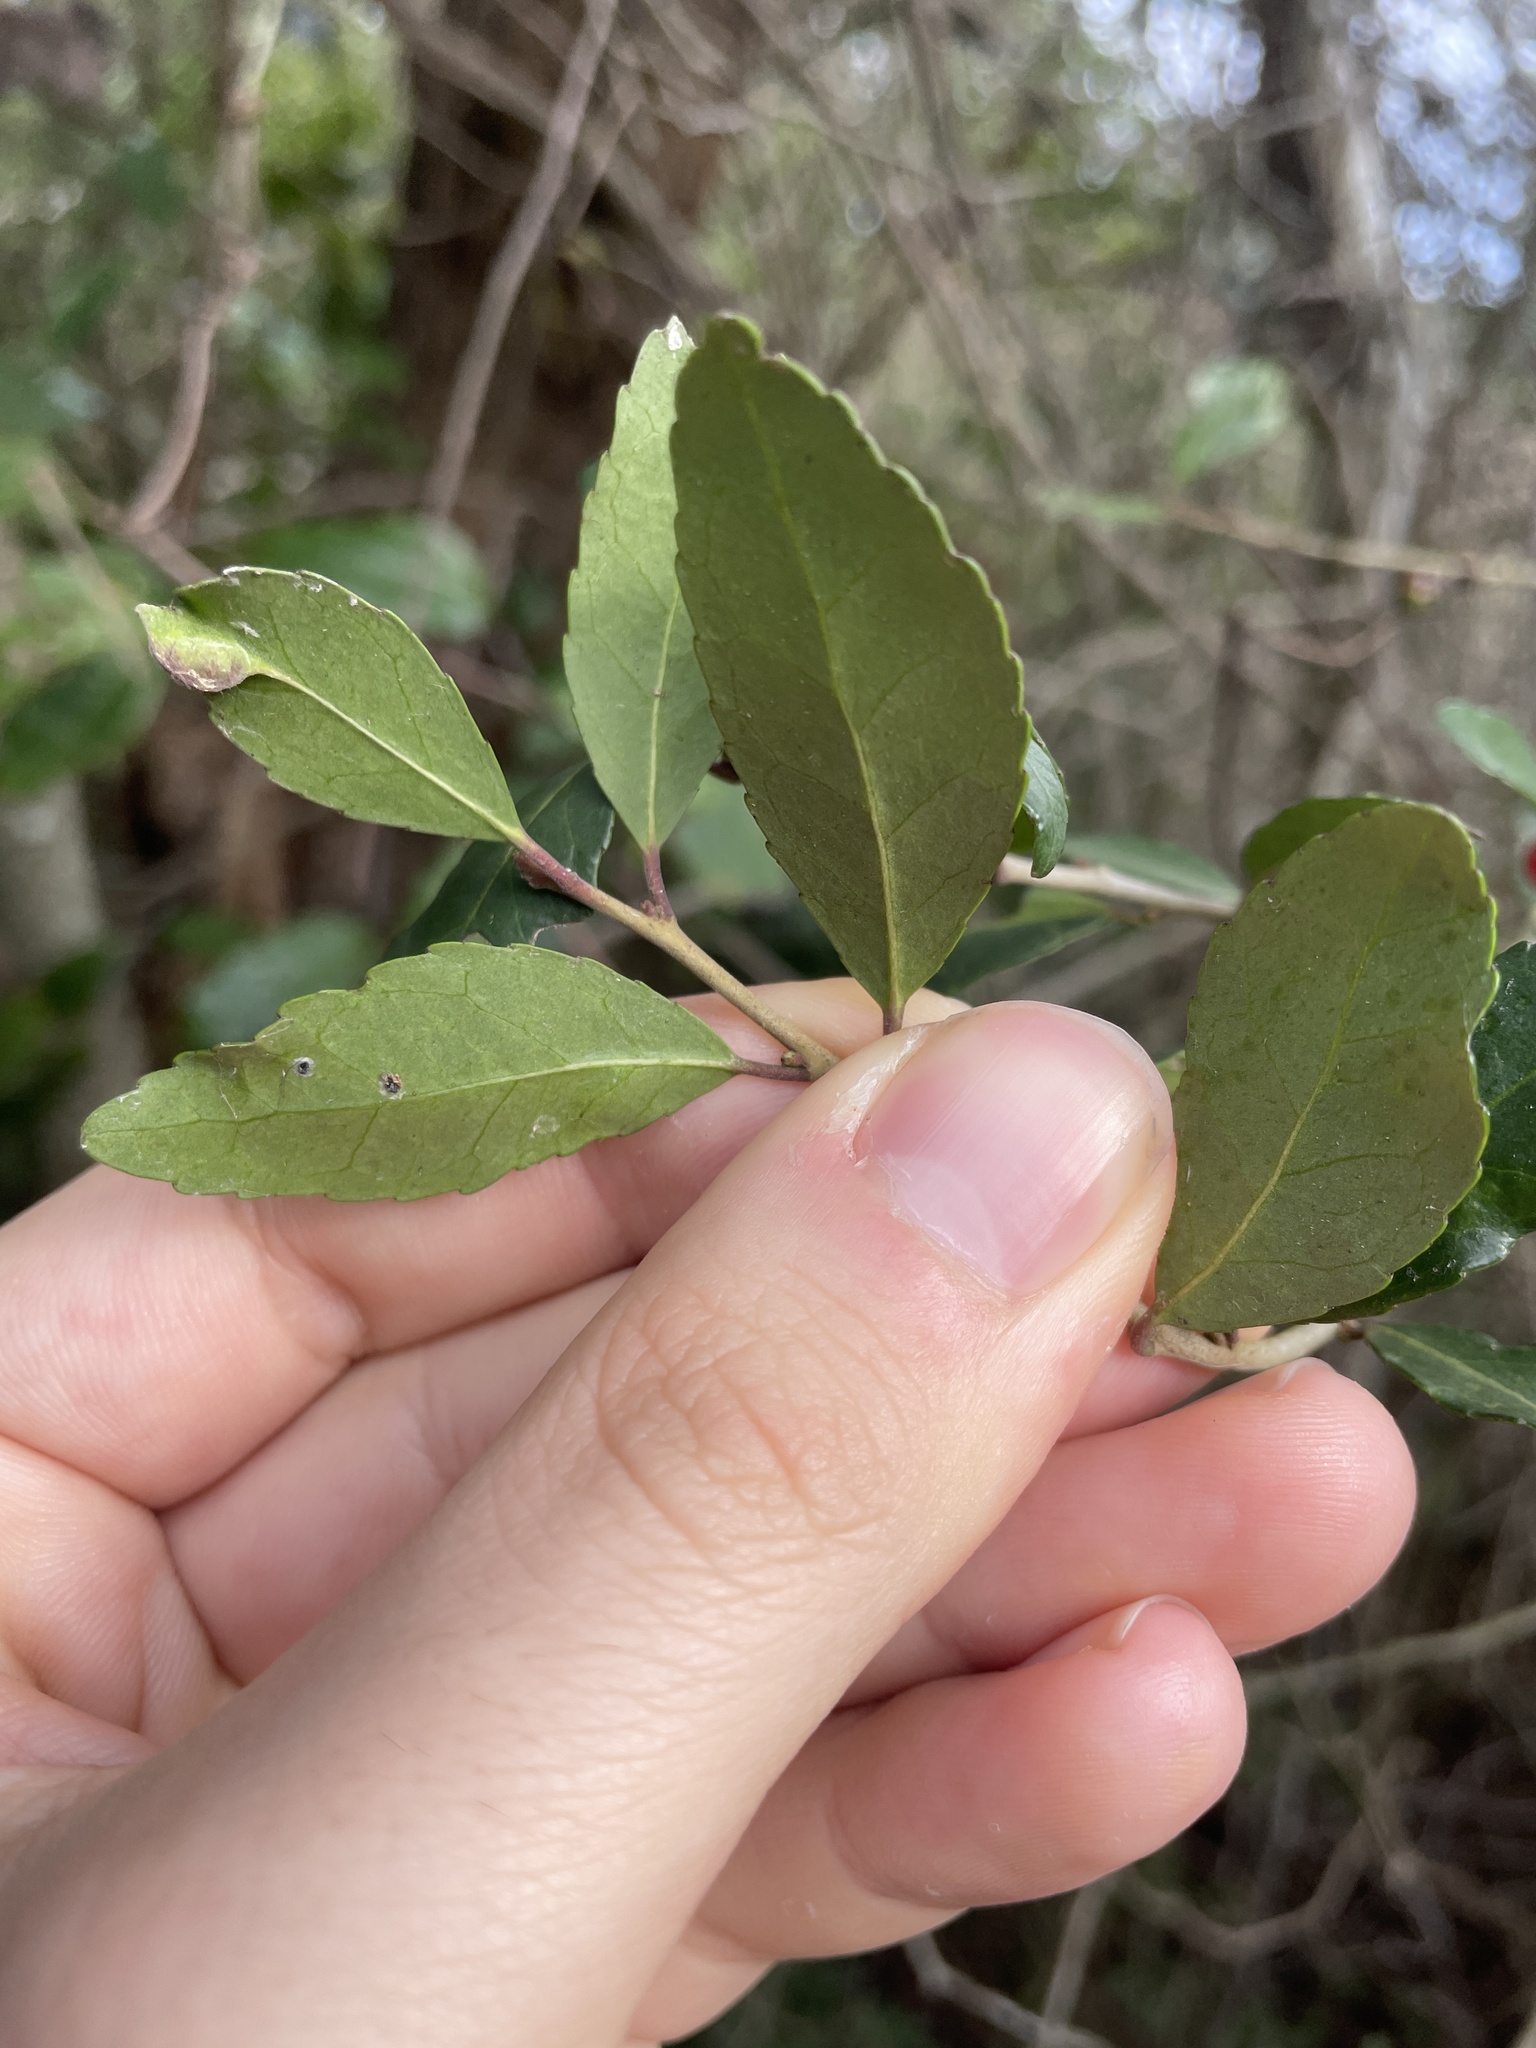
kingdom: Plantae
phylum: Tracheophyta
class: Magnoliopsida
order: Aquifoliales
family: Aquifoliaceae
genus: Ilex
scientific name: Ilex vomitoria
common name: Yaupon holly
